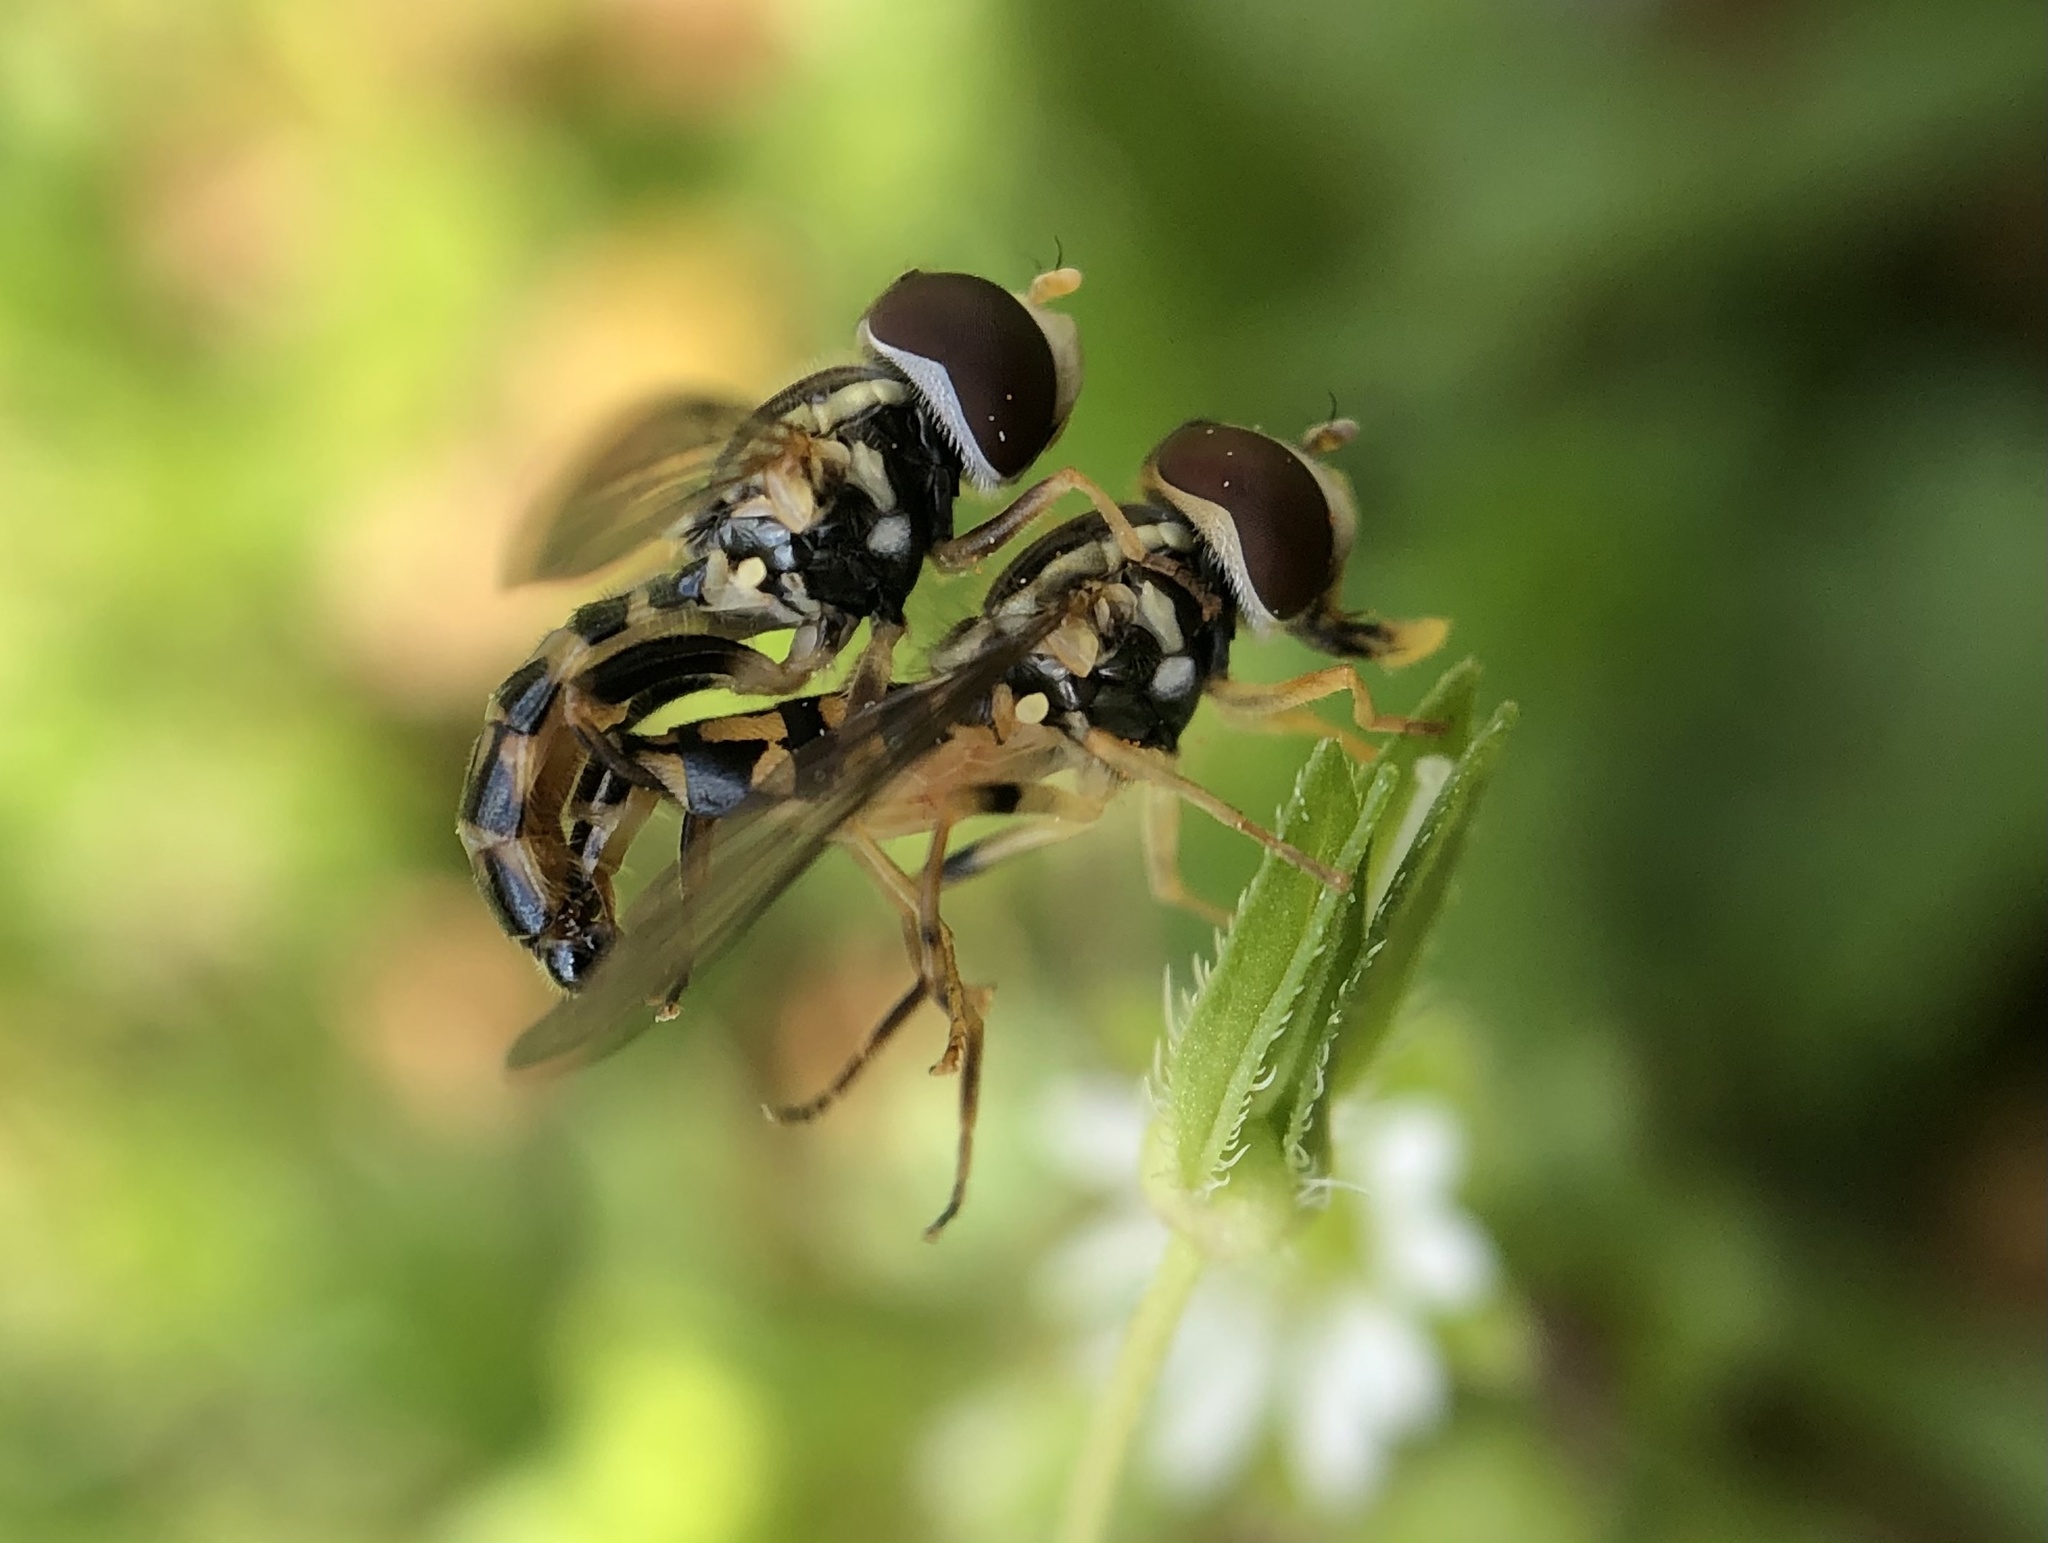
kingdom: Animalia
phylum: Arthropoda
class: Insecta
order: Diptera
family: Syrphidae
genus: Toxomerus
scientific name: Toxomerus geminatus
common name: Eastern calligrapher
